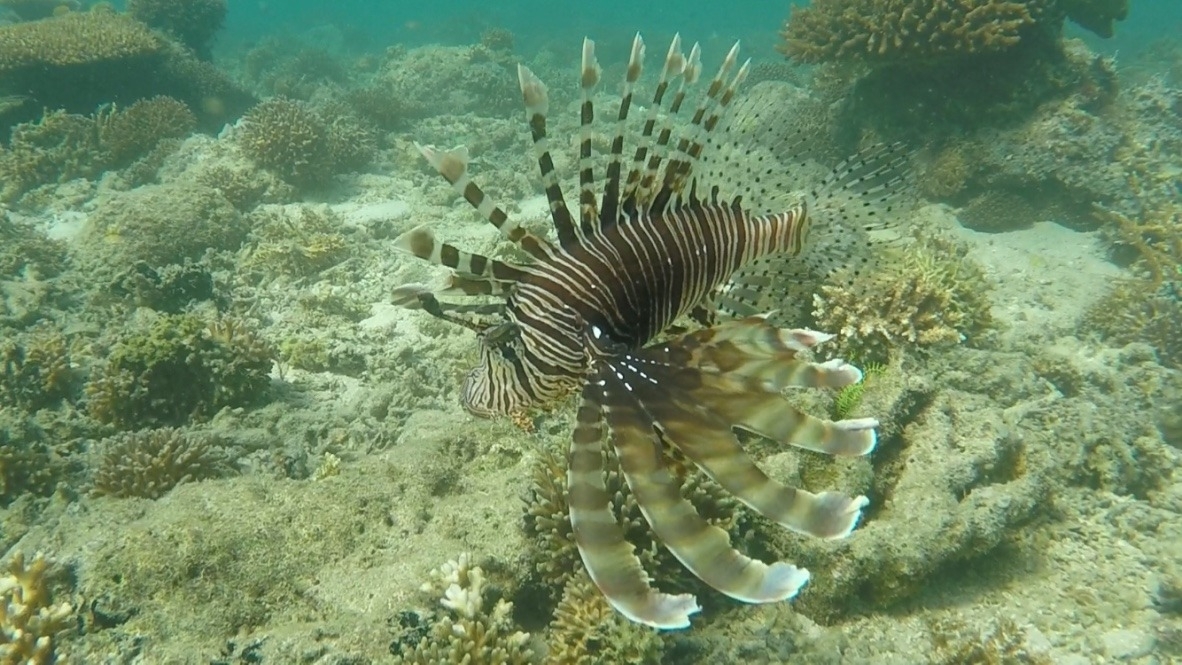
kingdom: Animalia
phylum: Chordata
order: Scorpaeniformes
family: Scorpaenidae
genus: Pterois
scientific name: Pterois volitans
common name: Lionfish
